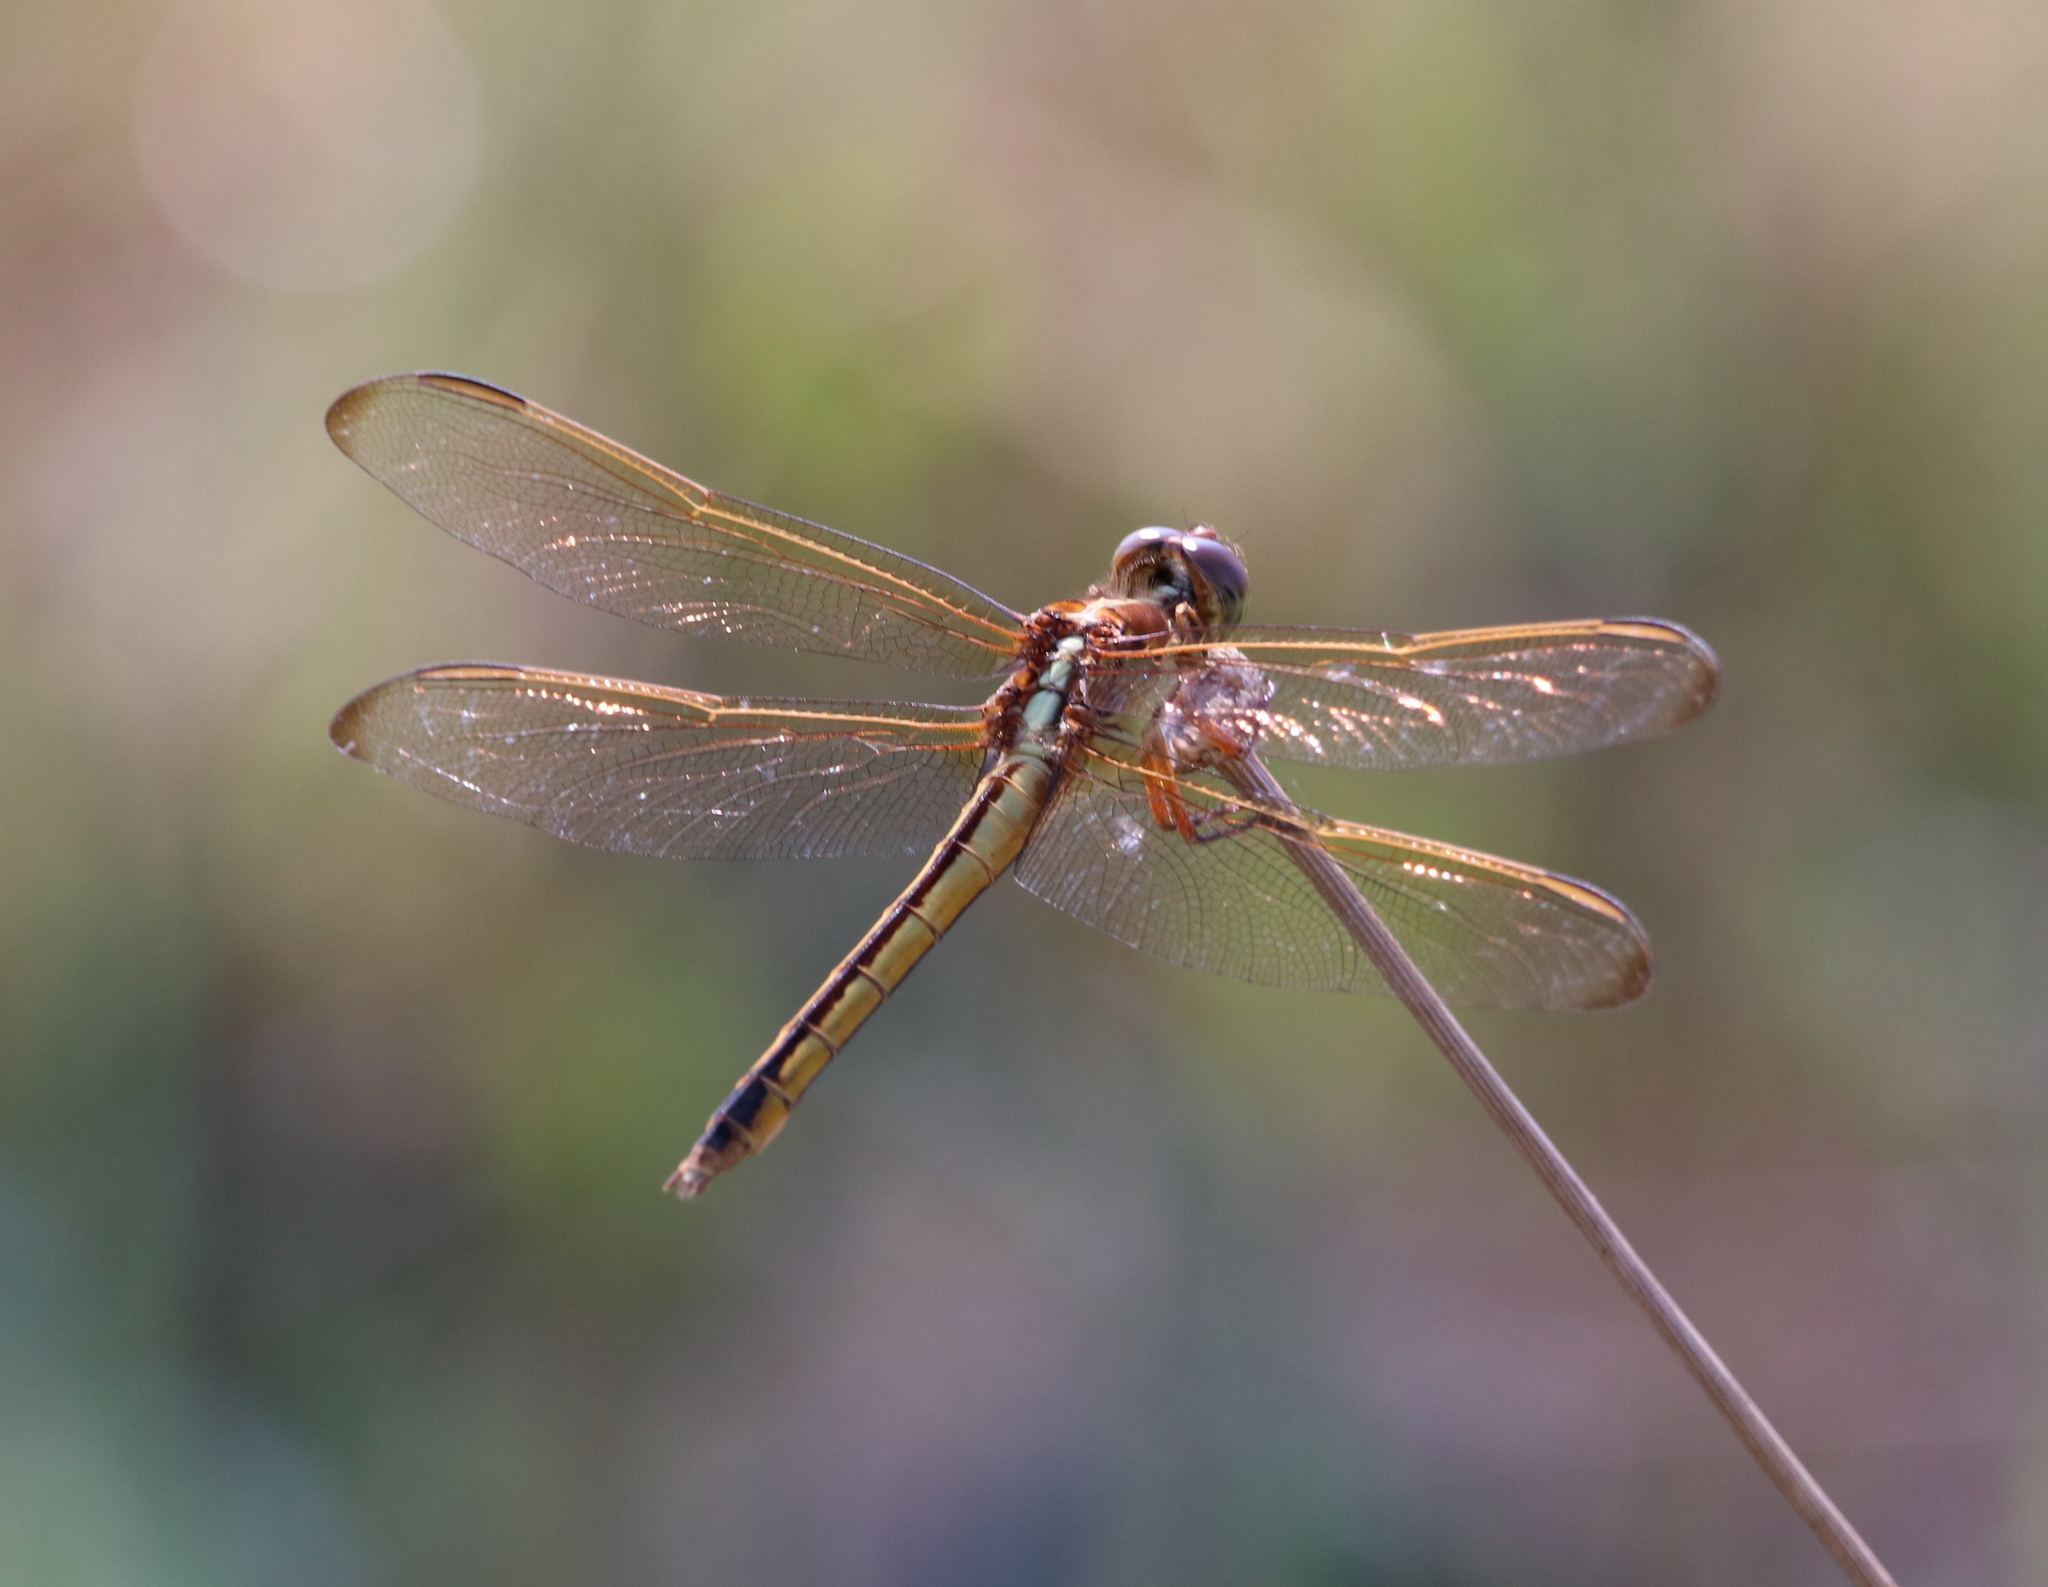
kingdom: Animalia
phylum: Arthropoda
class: Insecta
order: Odonata
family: Libellulidae
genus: Libellula
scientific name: Libellula needhami
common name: Needham's skimmer
